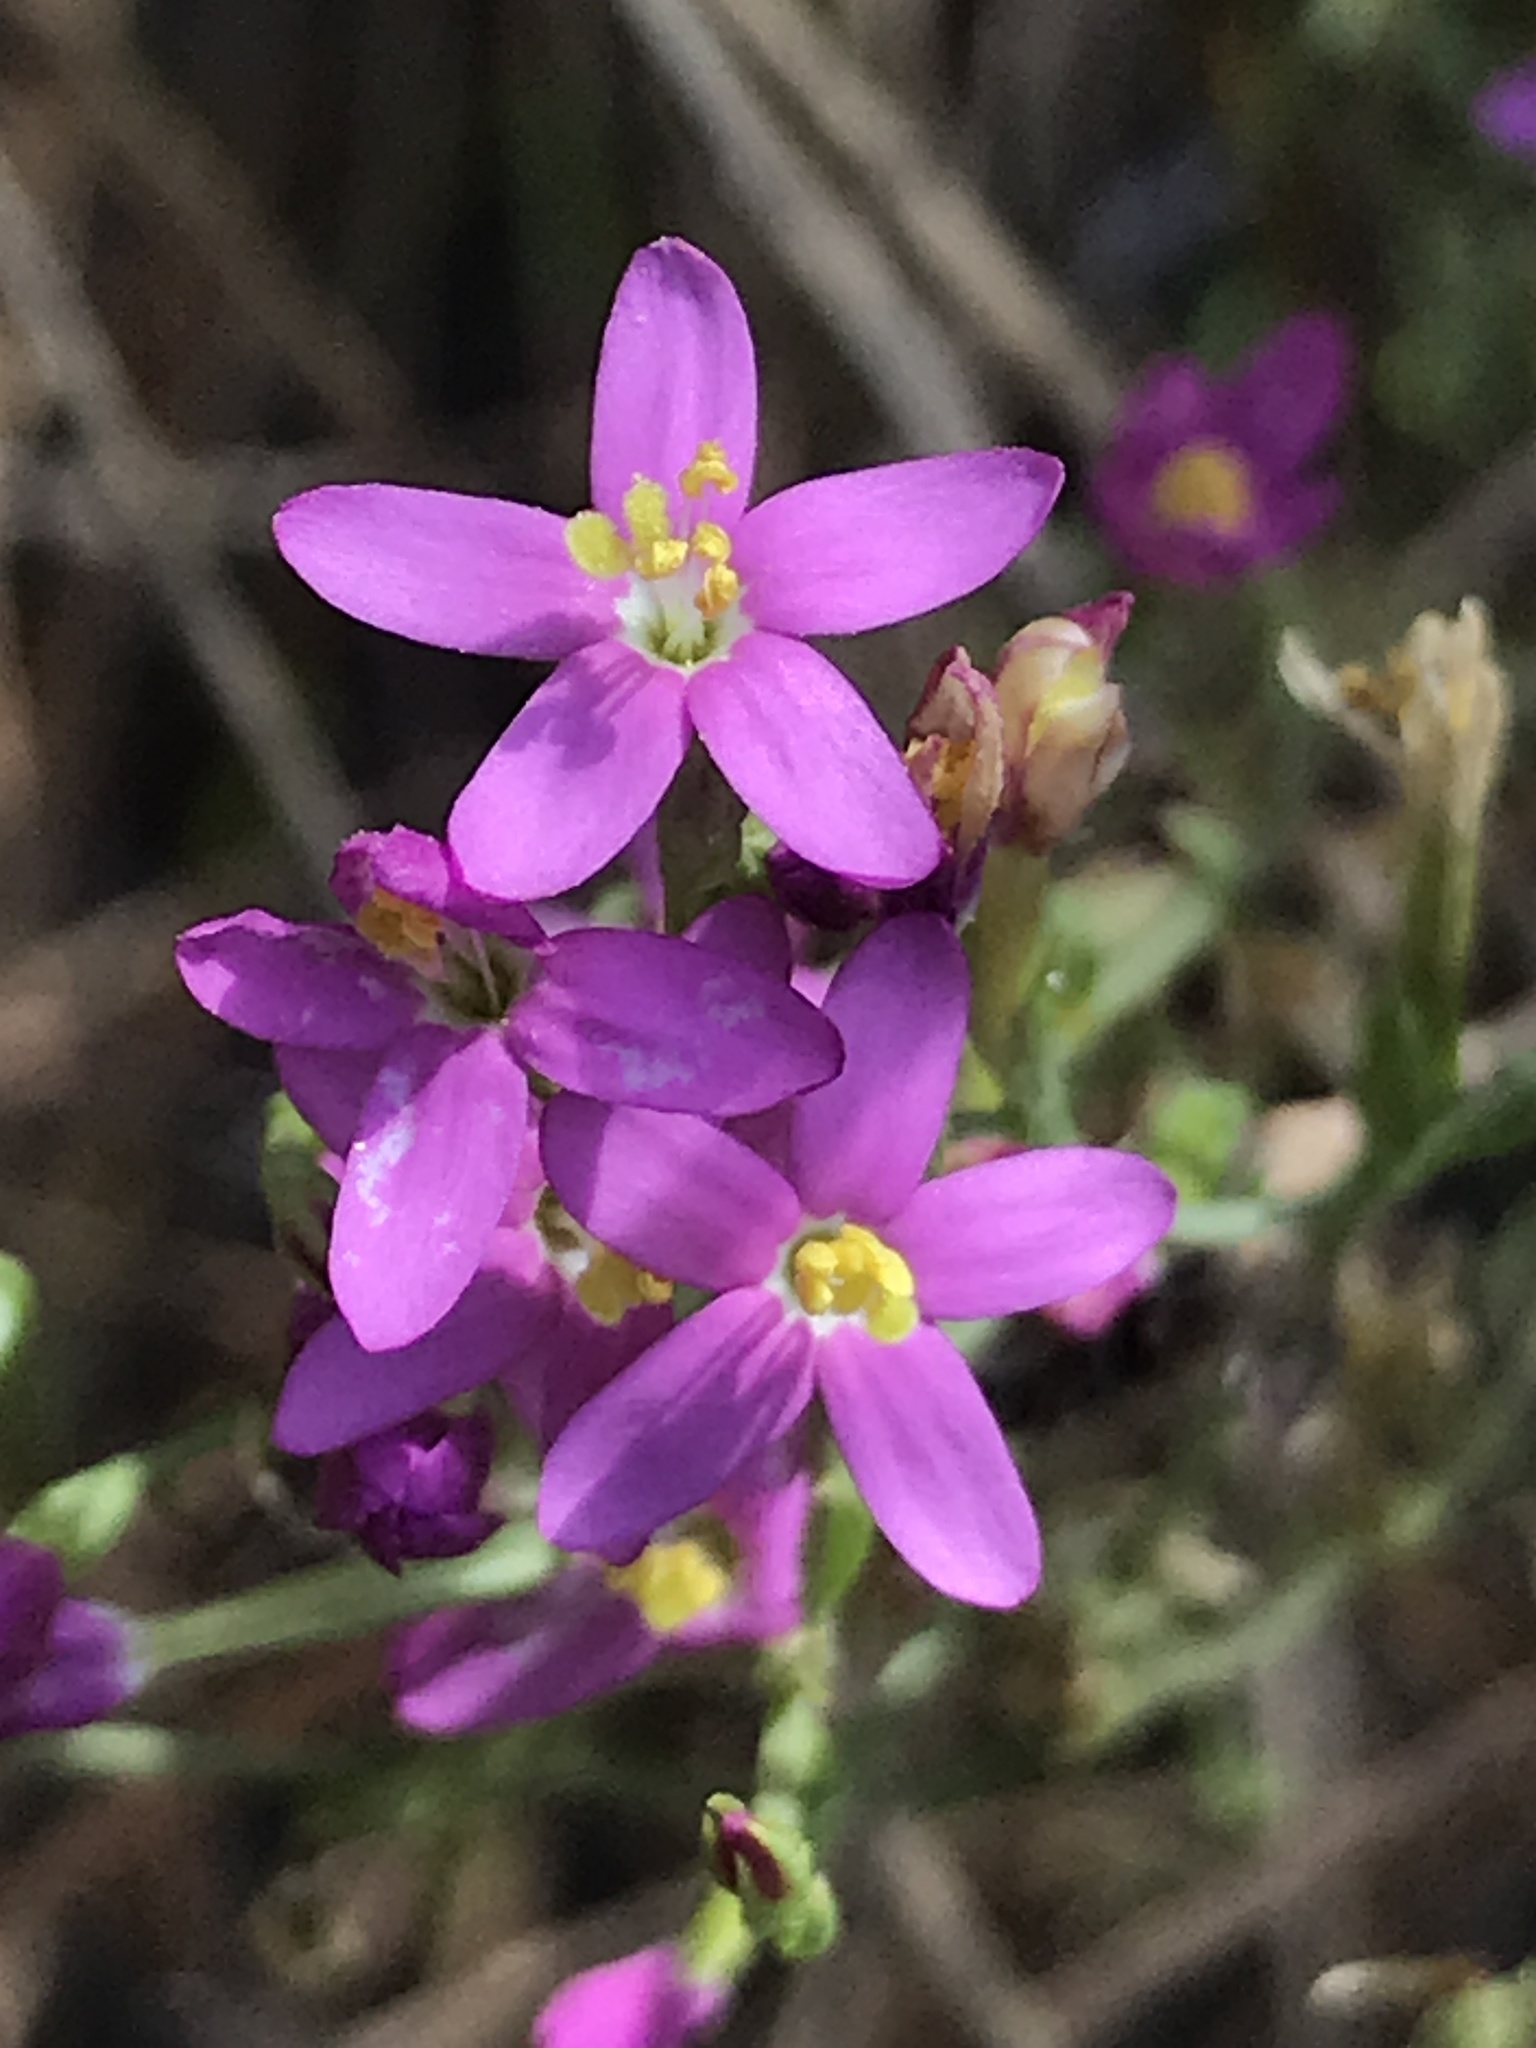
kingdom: Plantae
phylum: Tracheophyta
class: Magnoliopsida
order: Gentianales
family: Gentianaceae
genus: Zeltnera
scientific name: Zeltnera venusta
